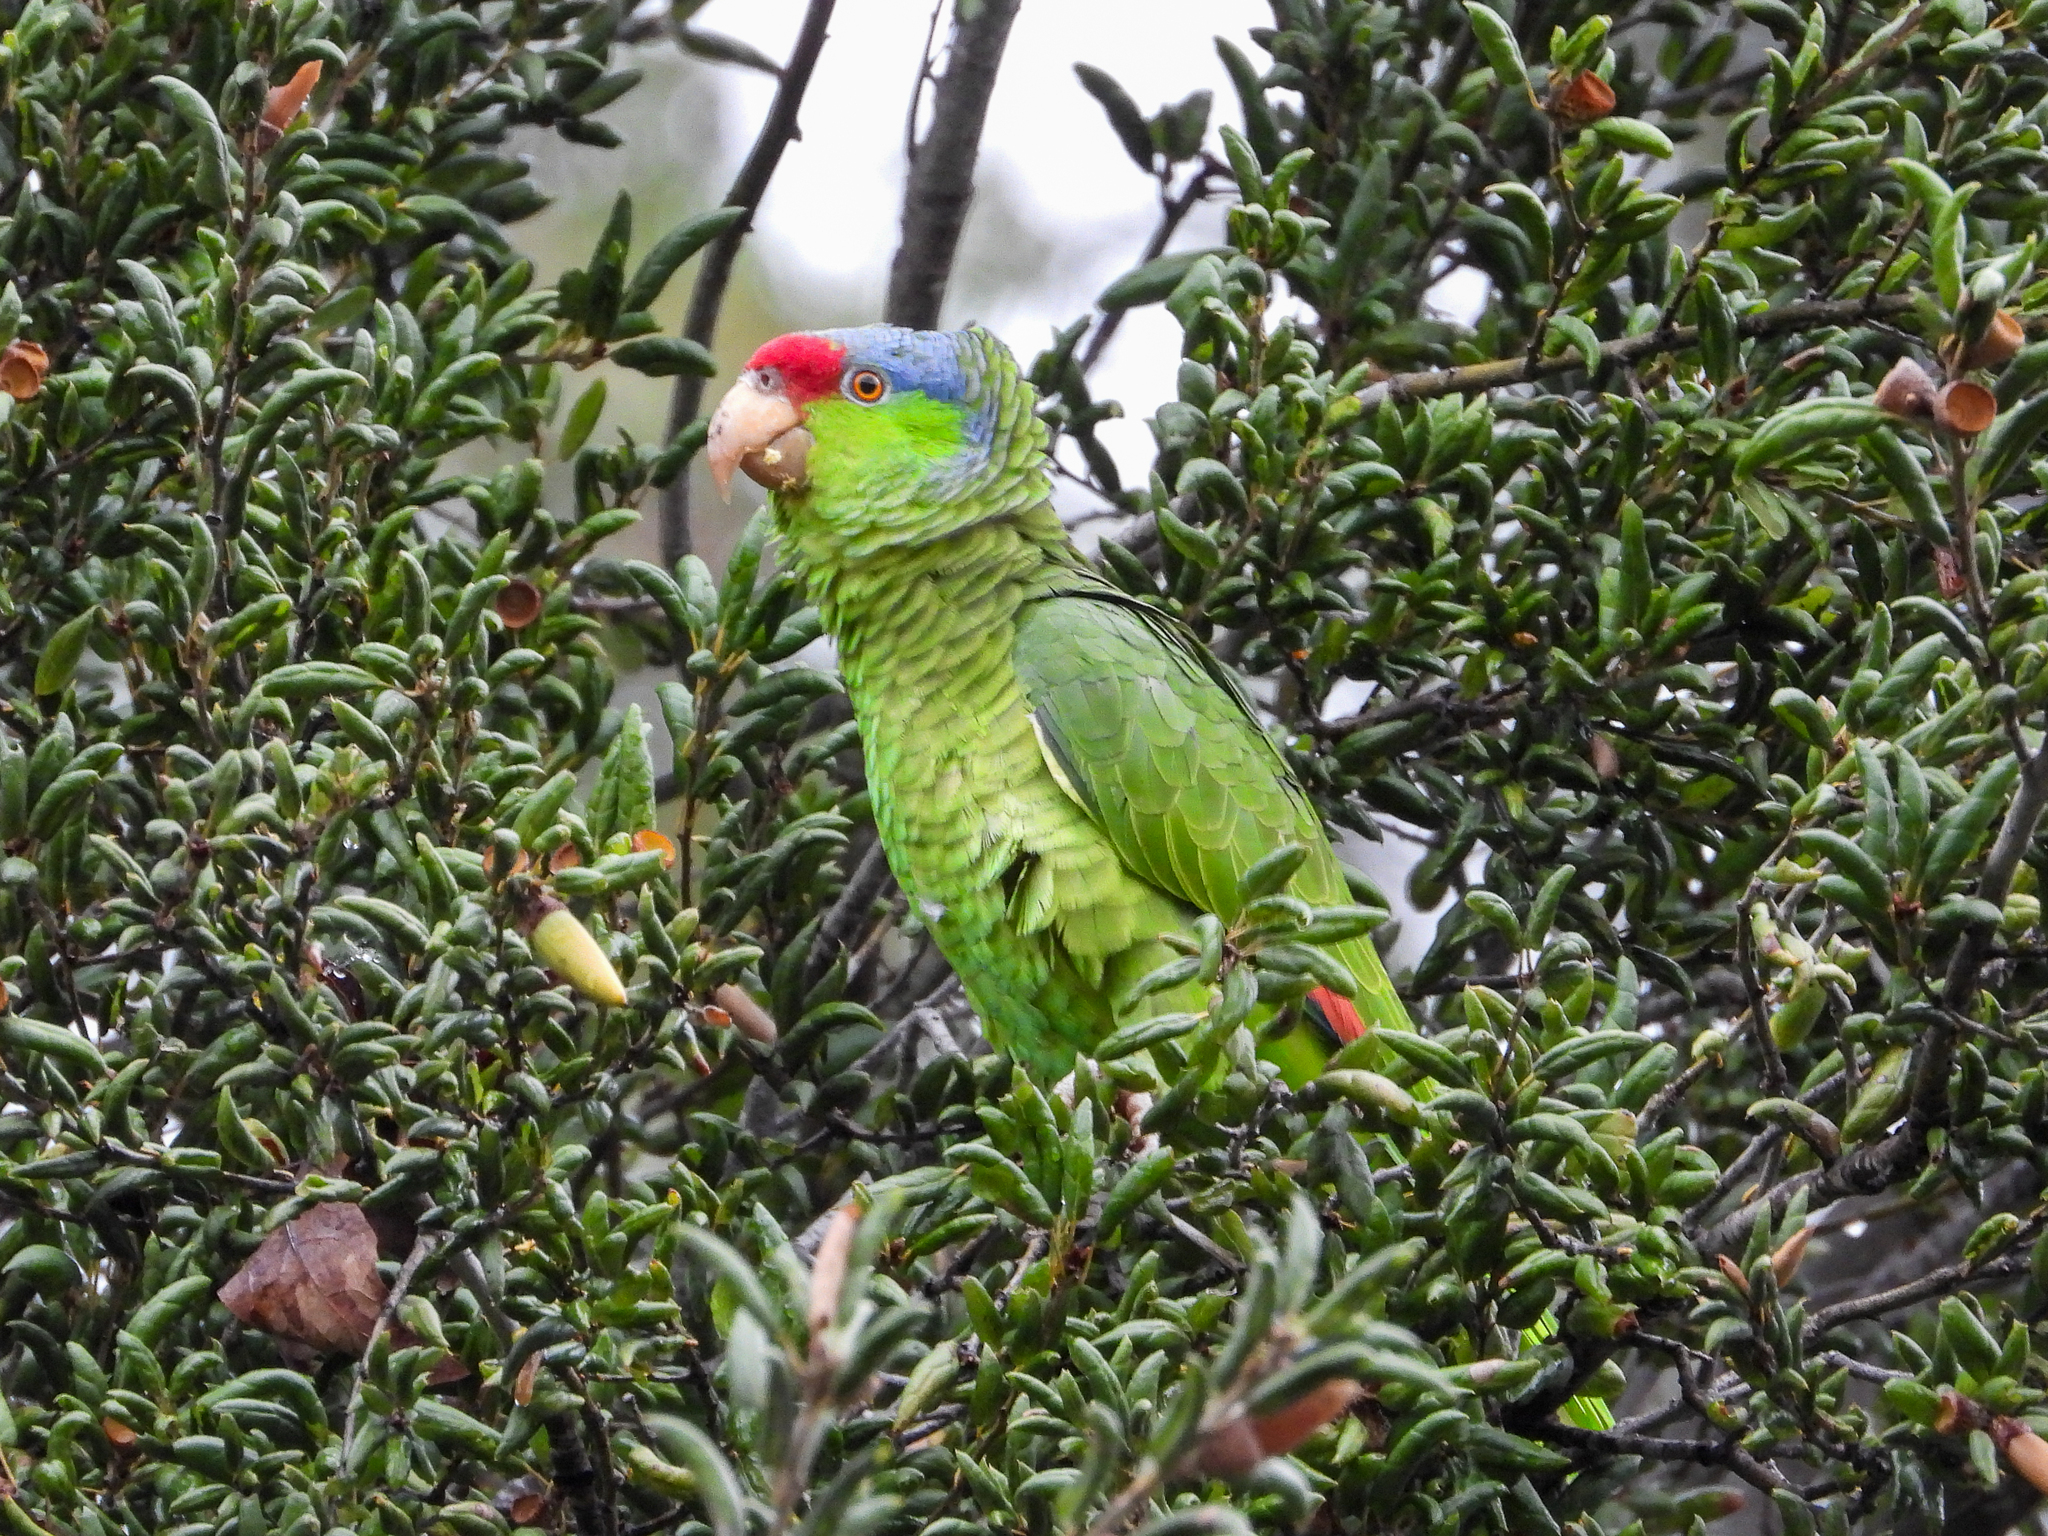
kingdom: Animalia
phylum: Chordata
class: Aves
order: Psittaciformes
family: Psittacidae
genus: Amazona
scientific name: Amazona
